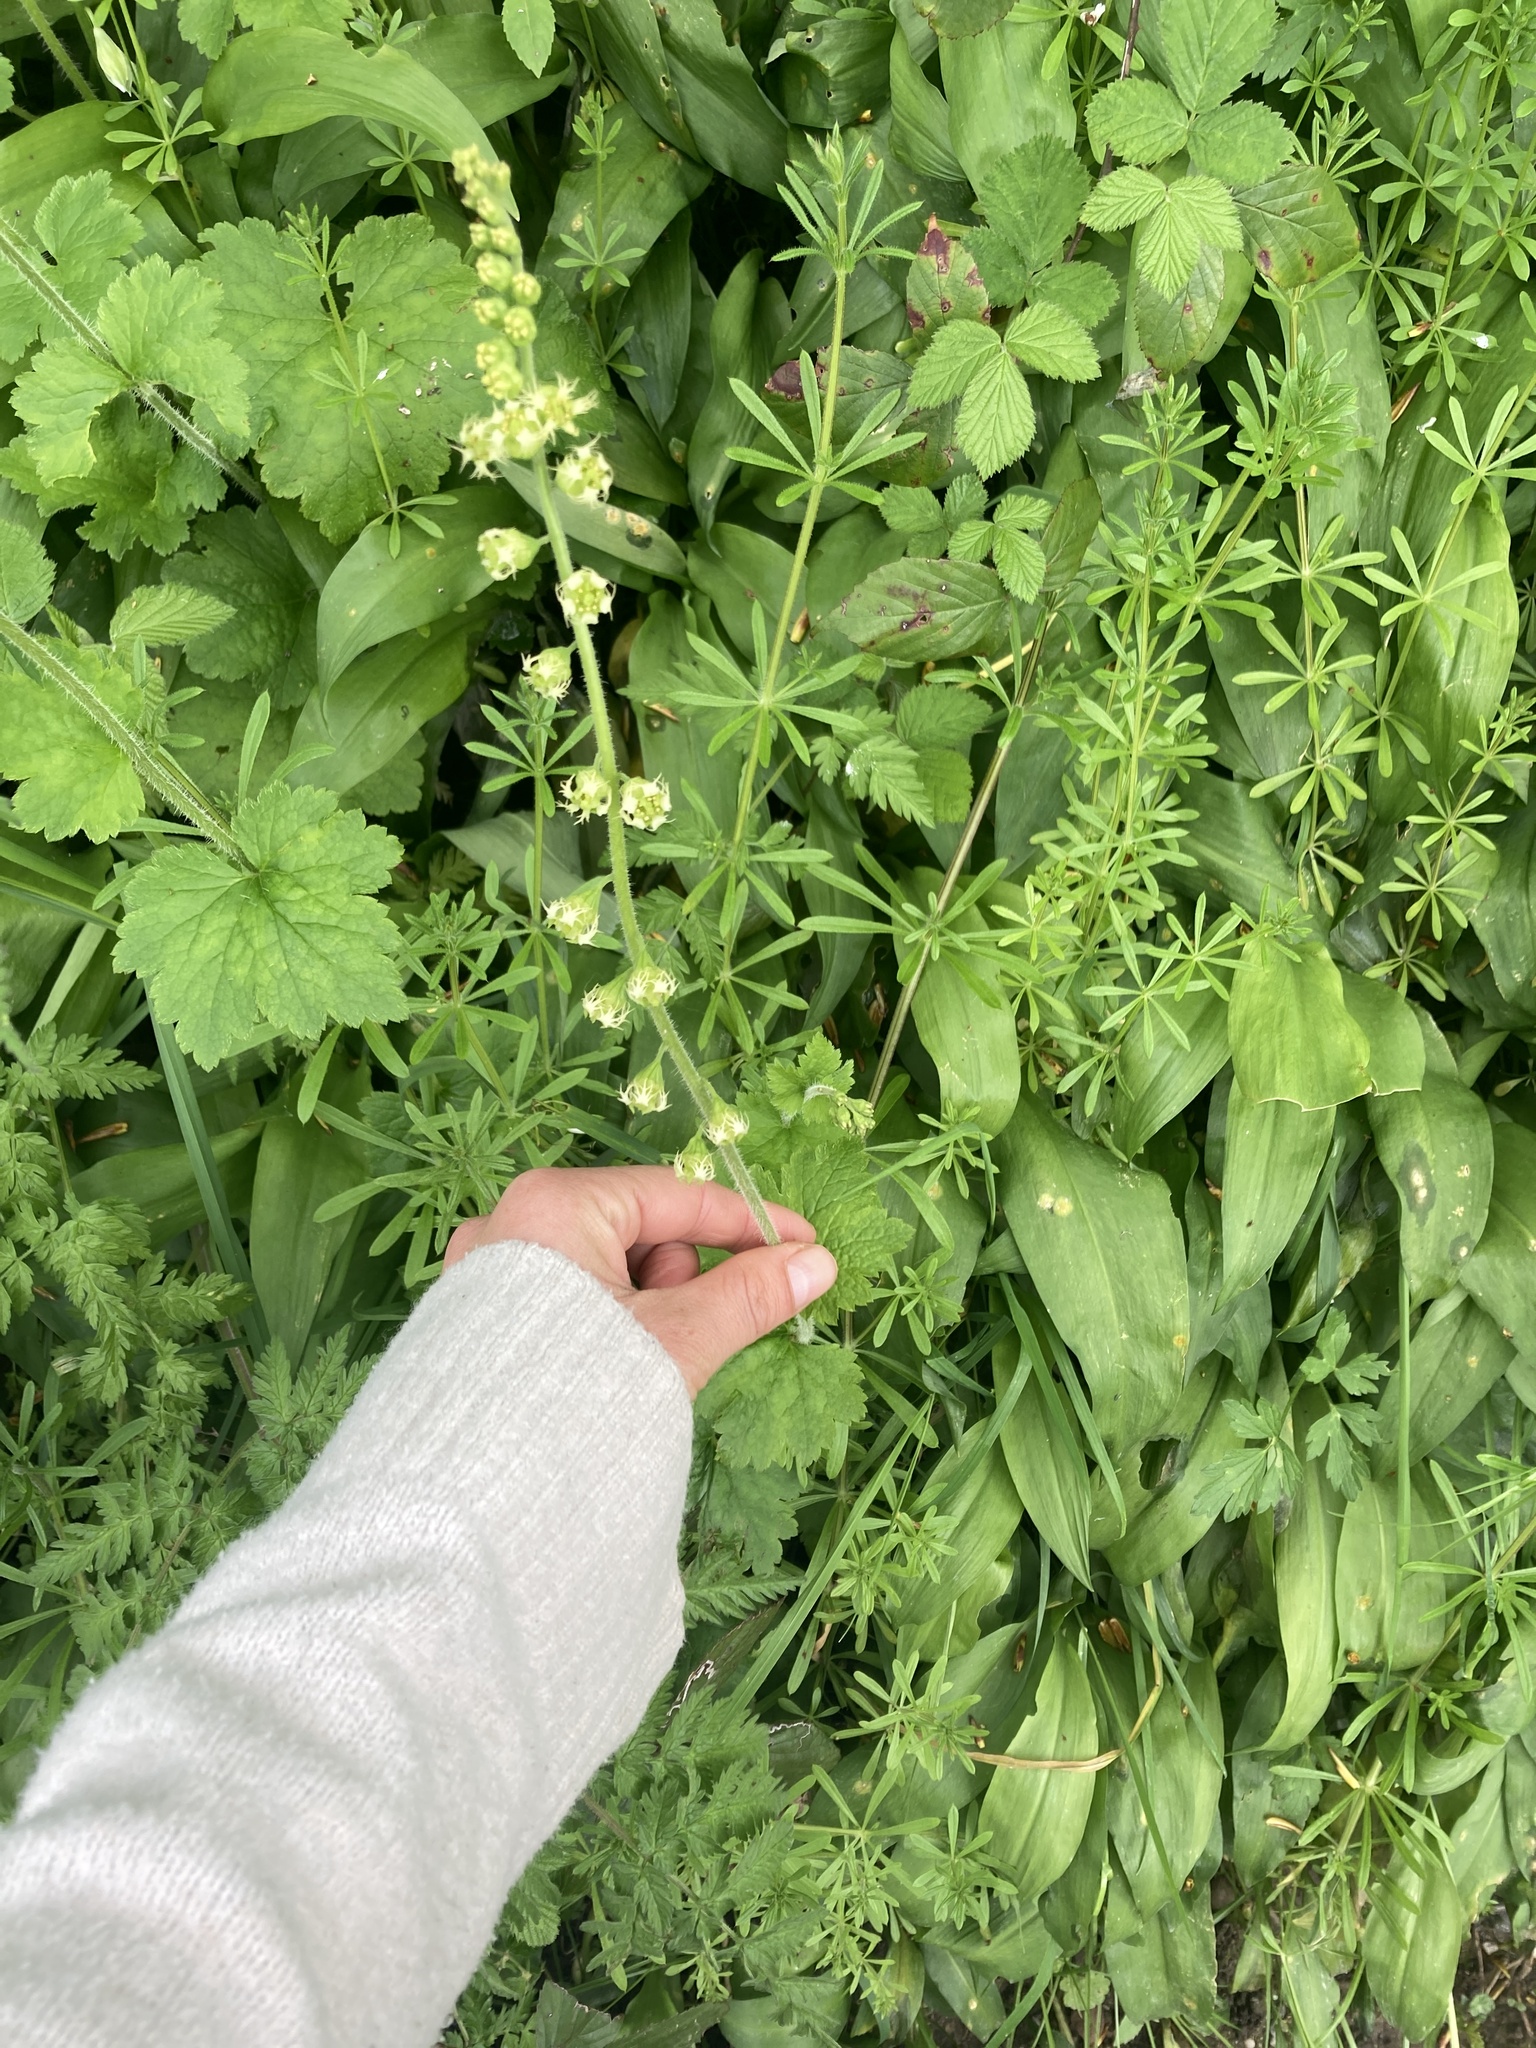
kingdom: Plantae
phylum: Tracheophyta
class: Magnoliopsida
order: Saxifragales
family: Saxifragaceae
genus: Tellima
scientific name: Tellima grandiflora
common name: Fringecups
